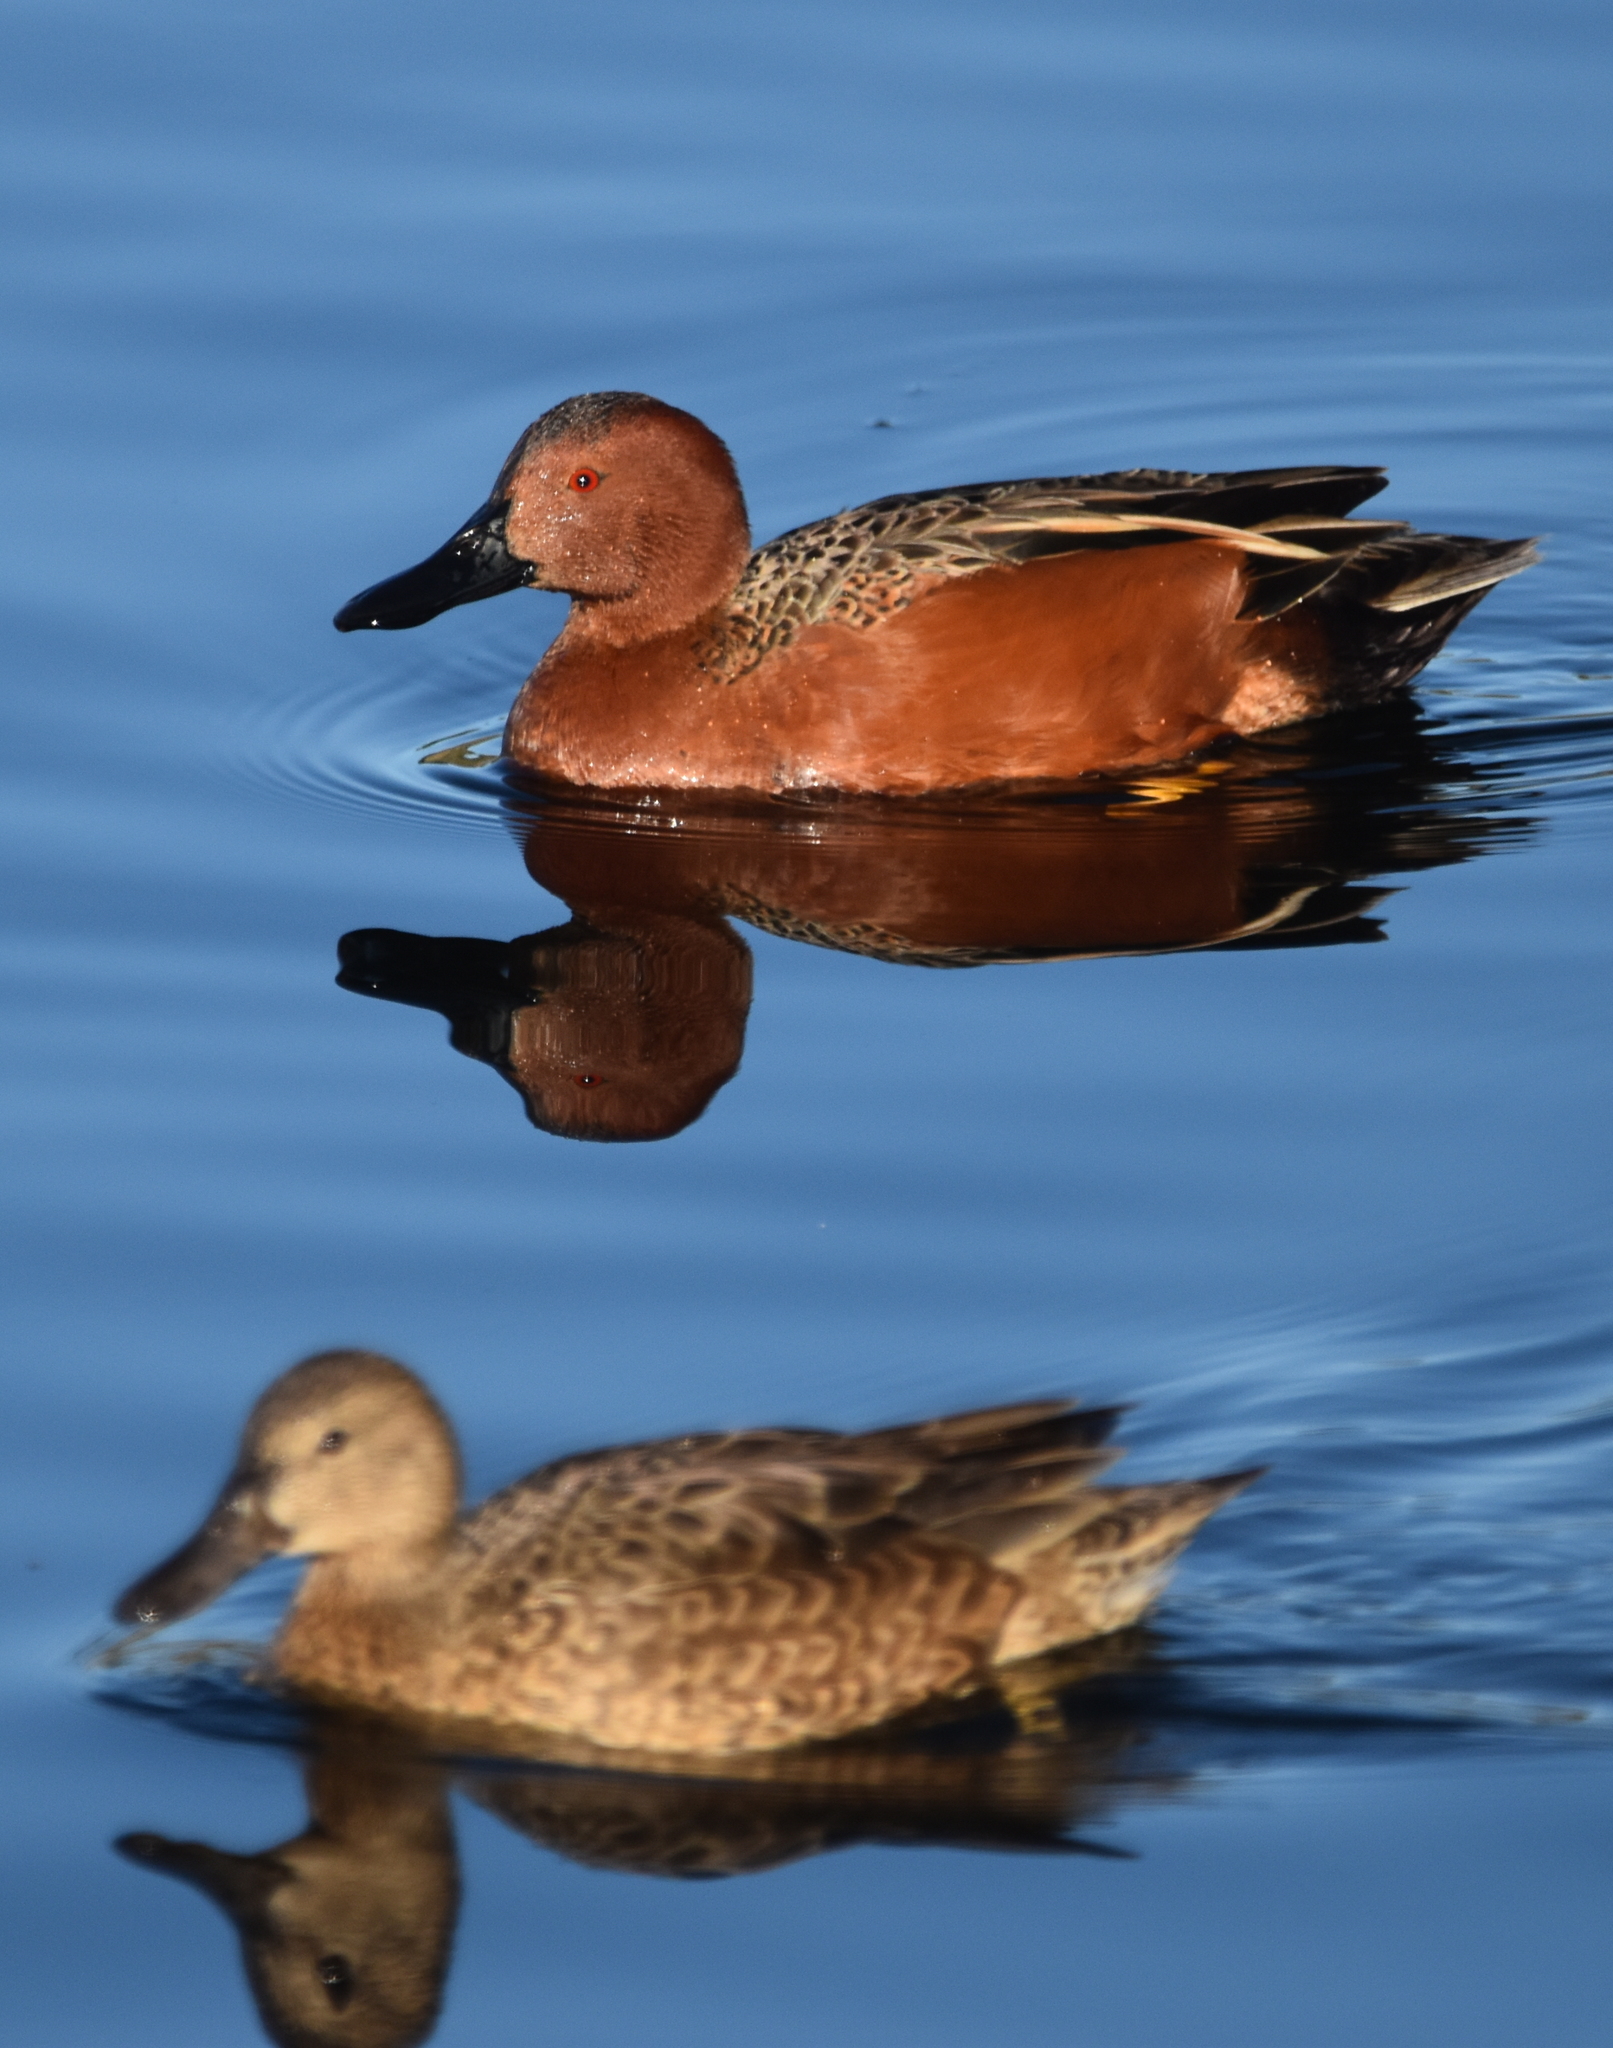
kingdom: Animalia
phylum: Chordata
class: Aves
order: Anseriformes
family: Anatidae
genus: Spatula
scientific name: Spatula cyanoptera
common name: Cinnamon teal
